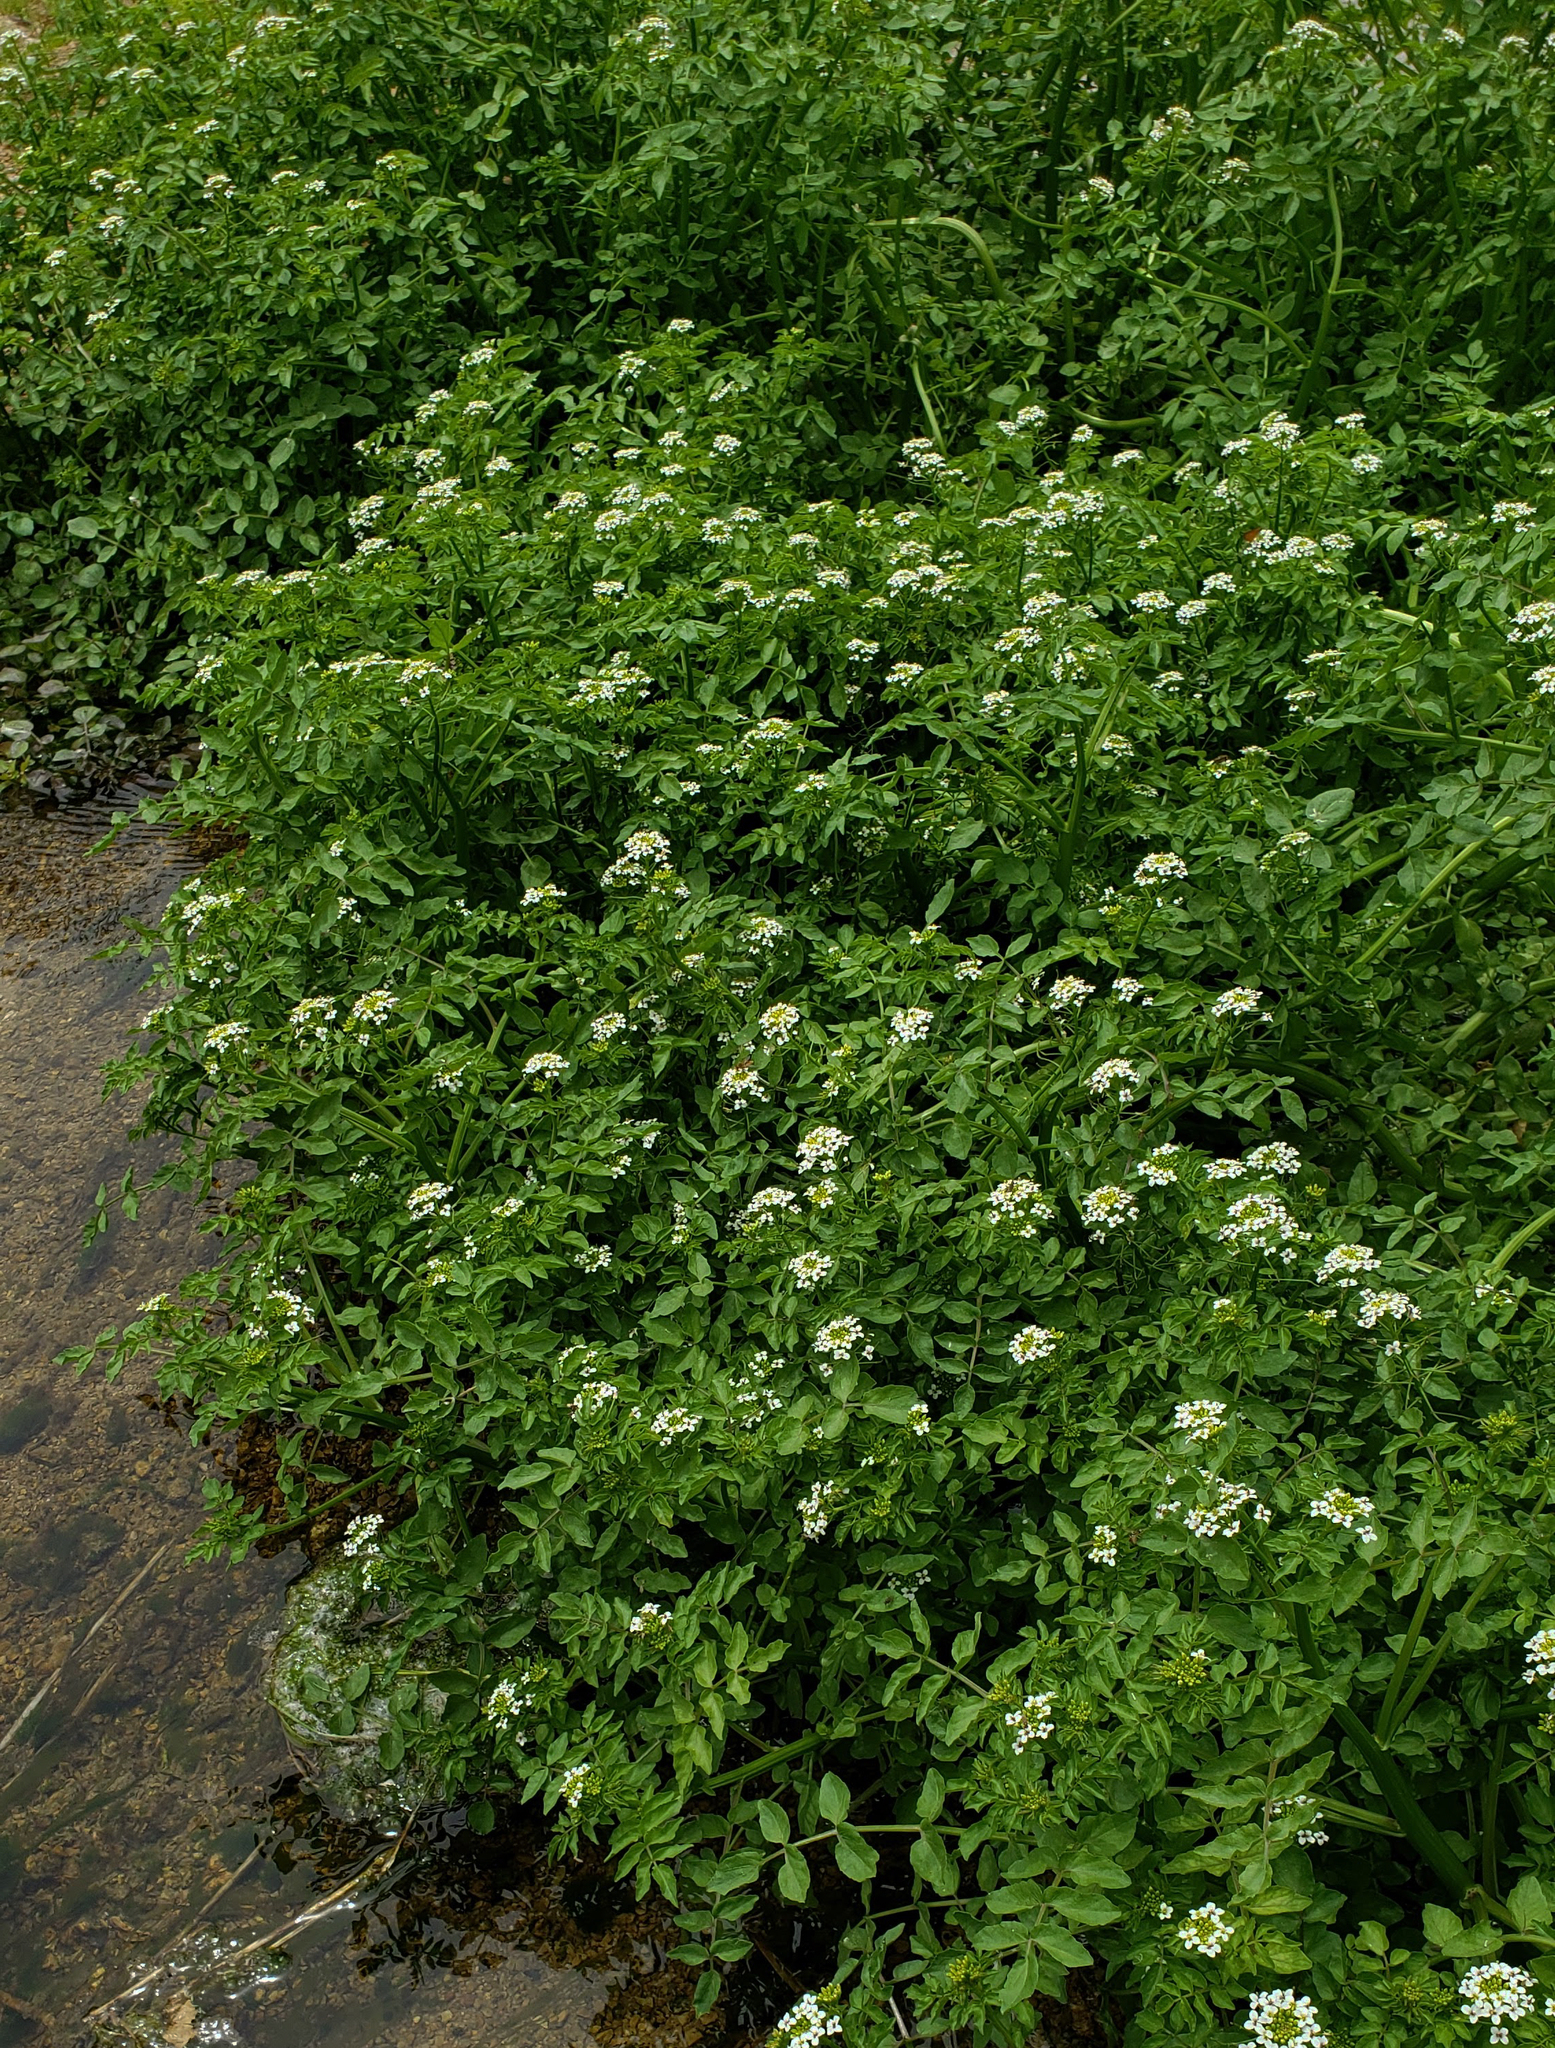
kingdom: Plantae
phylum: Tracheophyta
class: Magnoliopsida
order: Brassicales
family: Brassicaceae
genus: Nasturtium
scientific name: Nasturtium officinale
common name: Watercress
